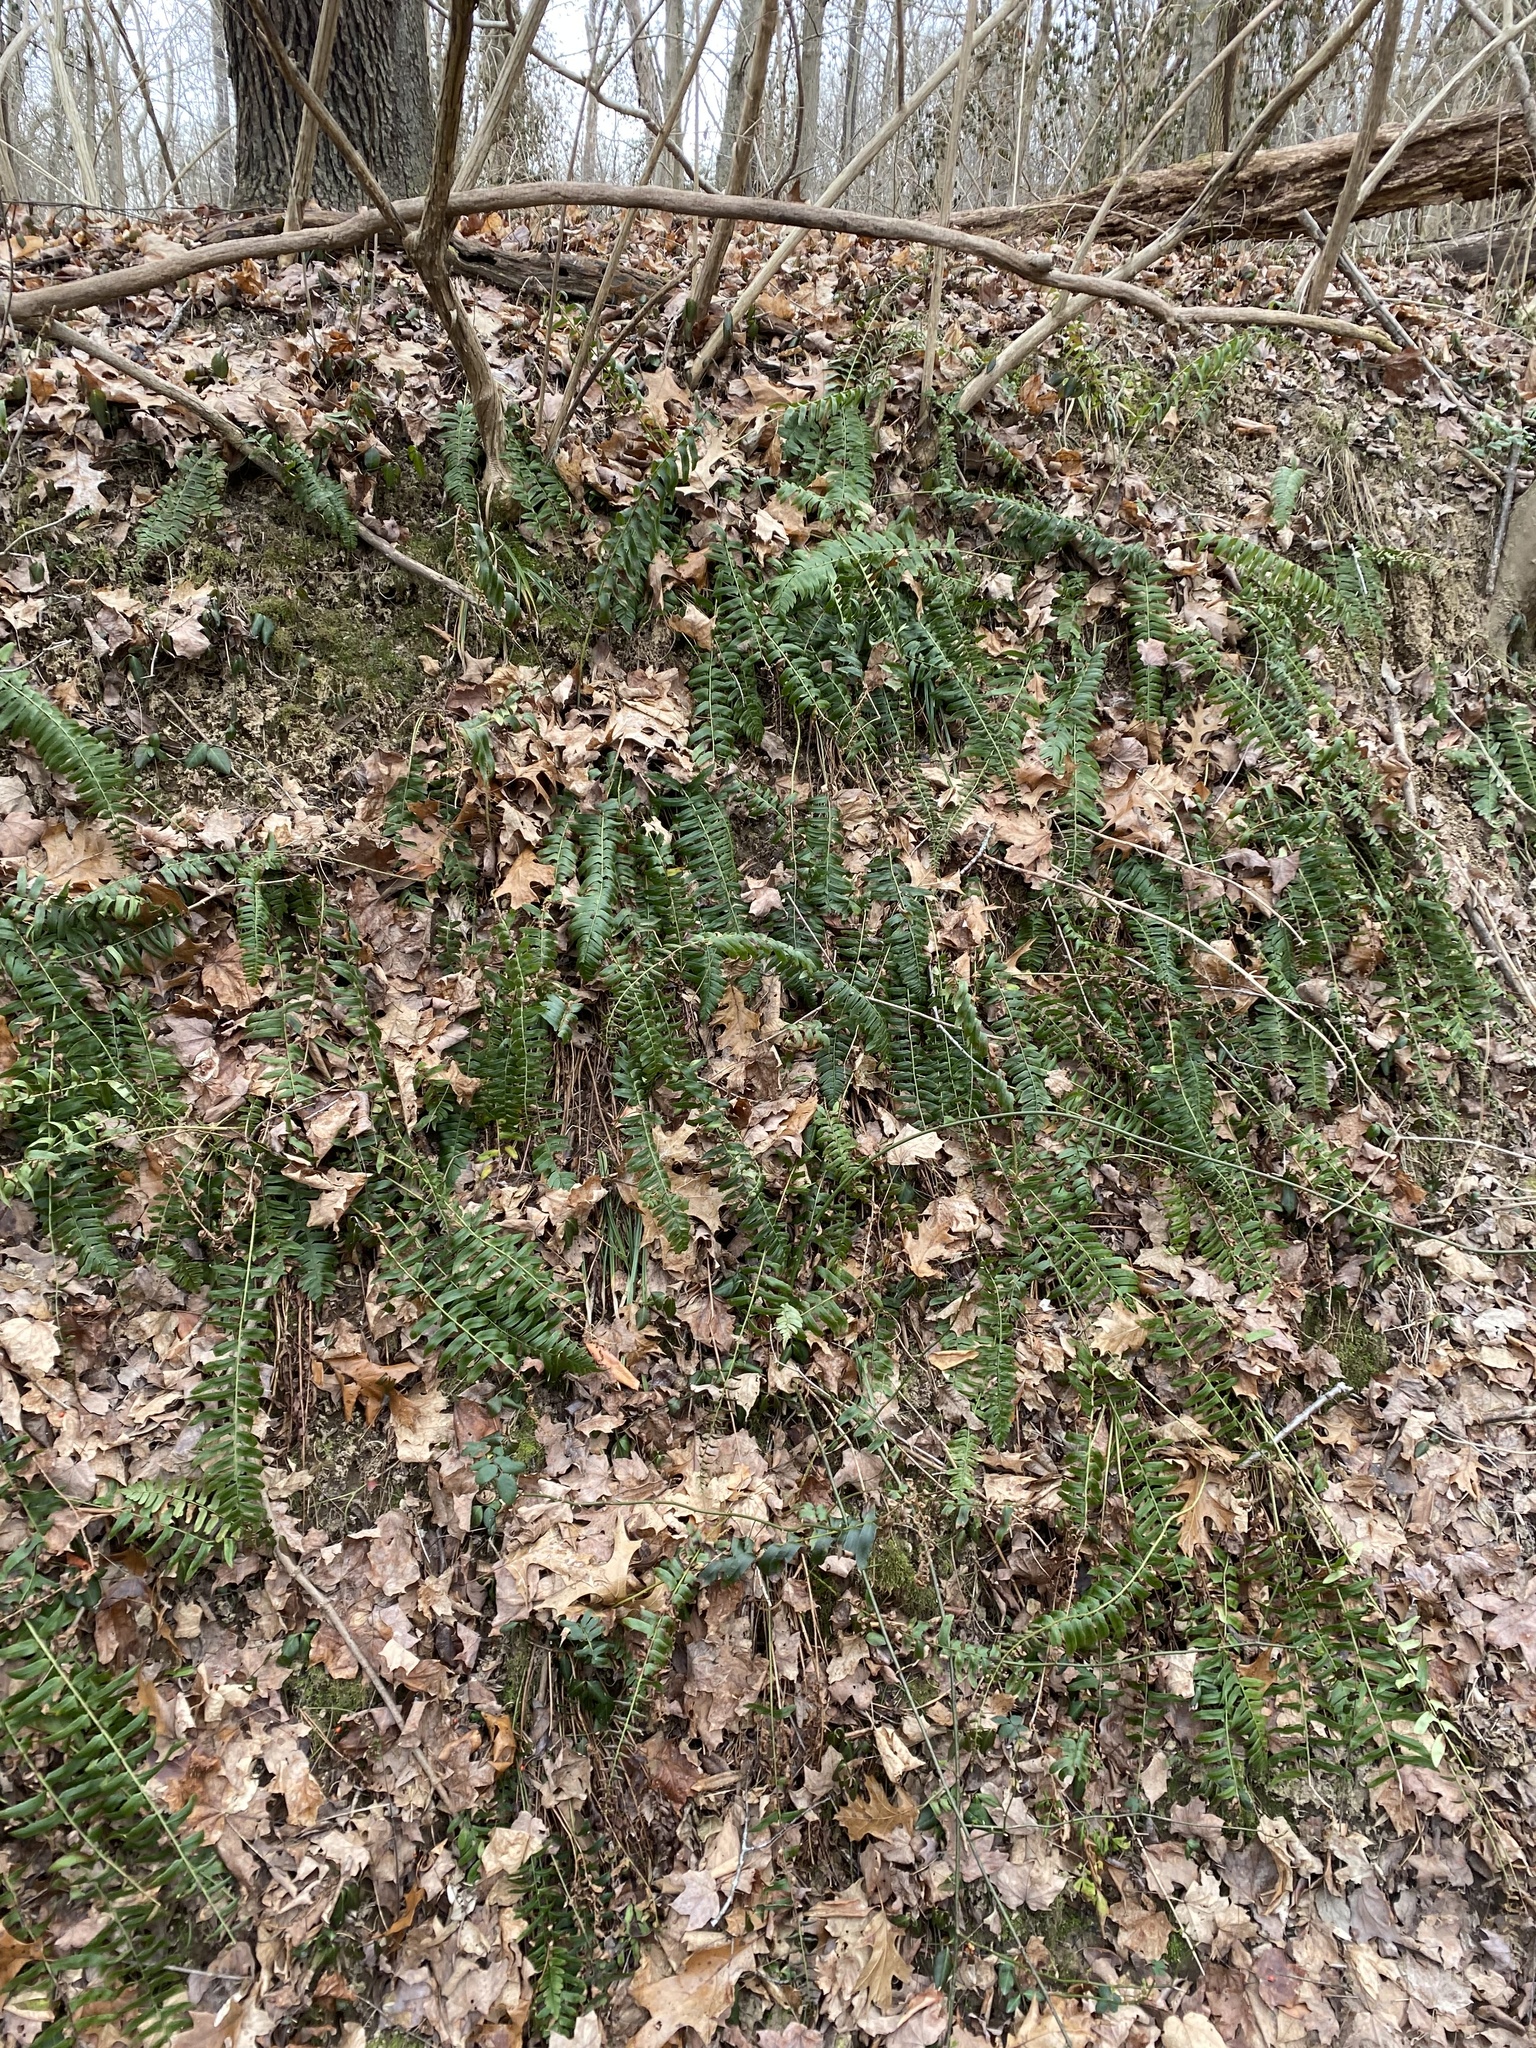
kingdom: Plantae
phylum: Tracheophyta
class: Polypodiopsida
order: Polypodiales
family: Dryopteridaceae
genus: Polystichum
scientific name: Polystichum acrostichoides
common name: Christmas fern
